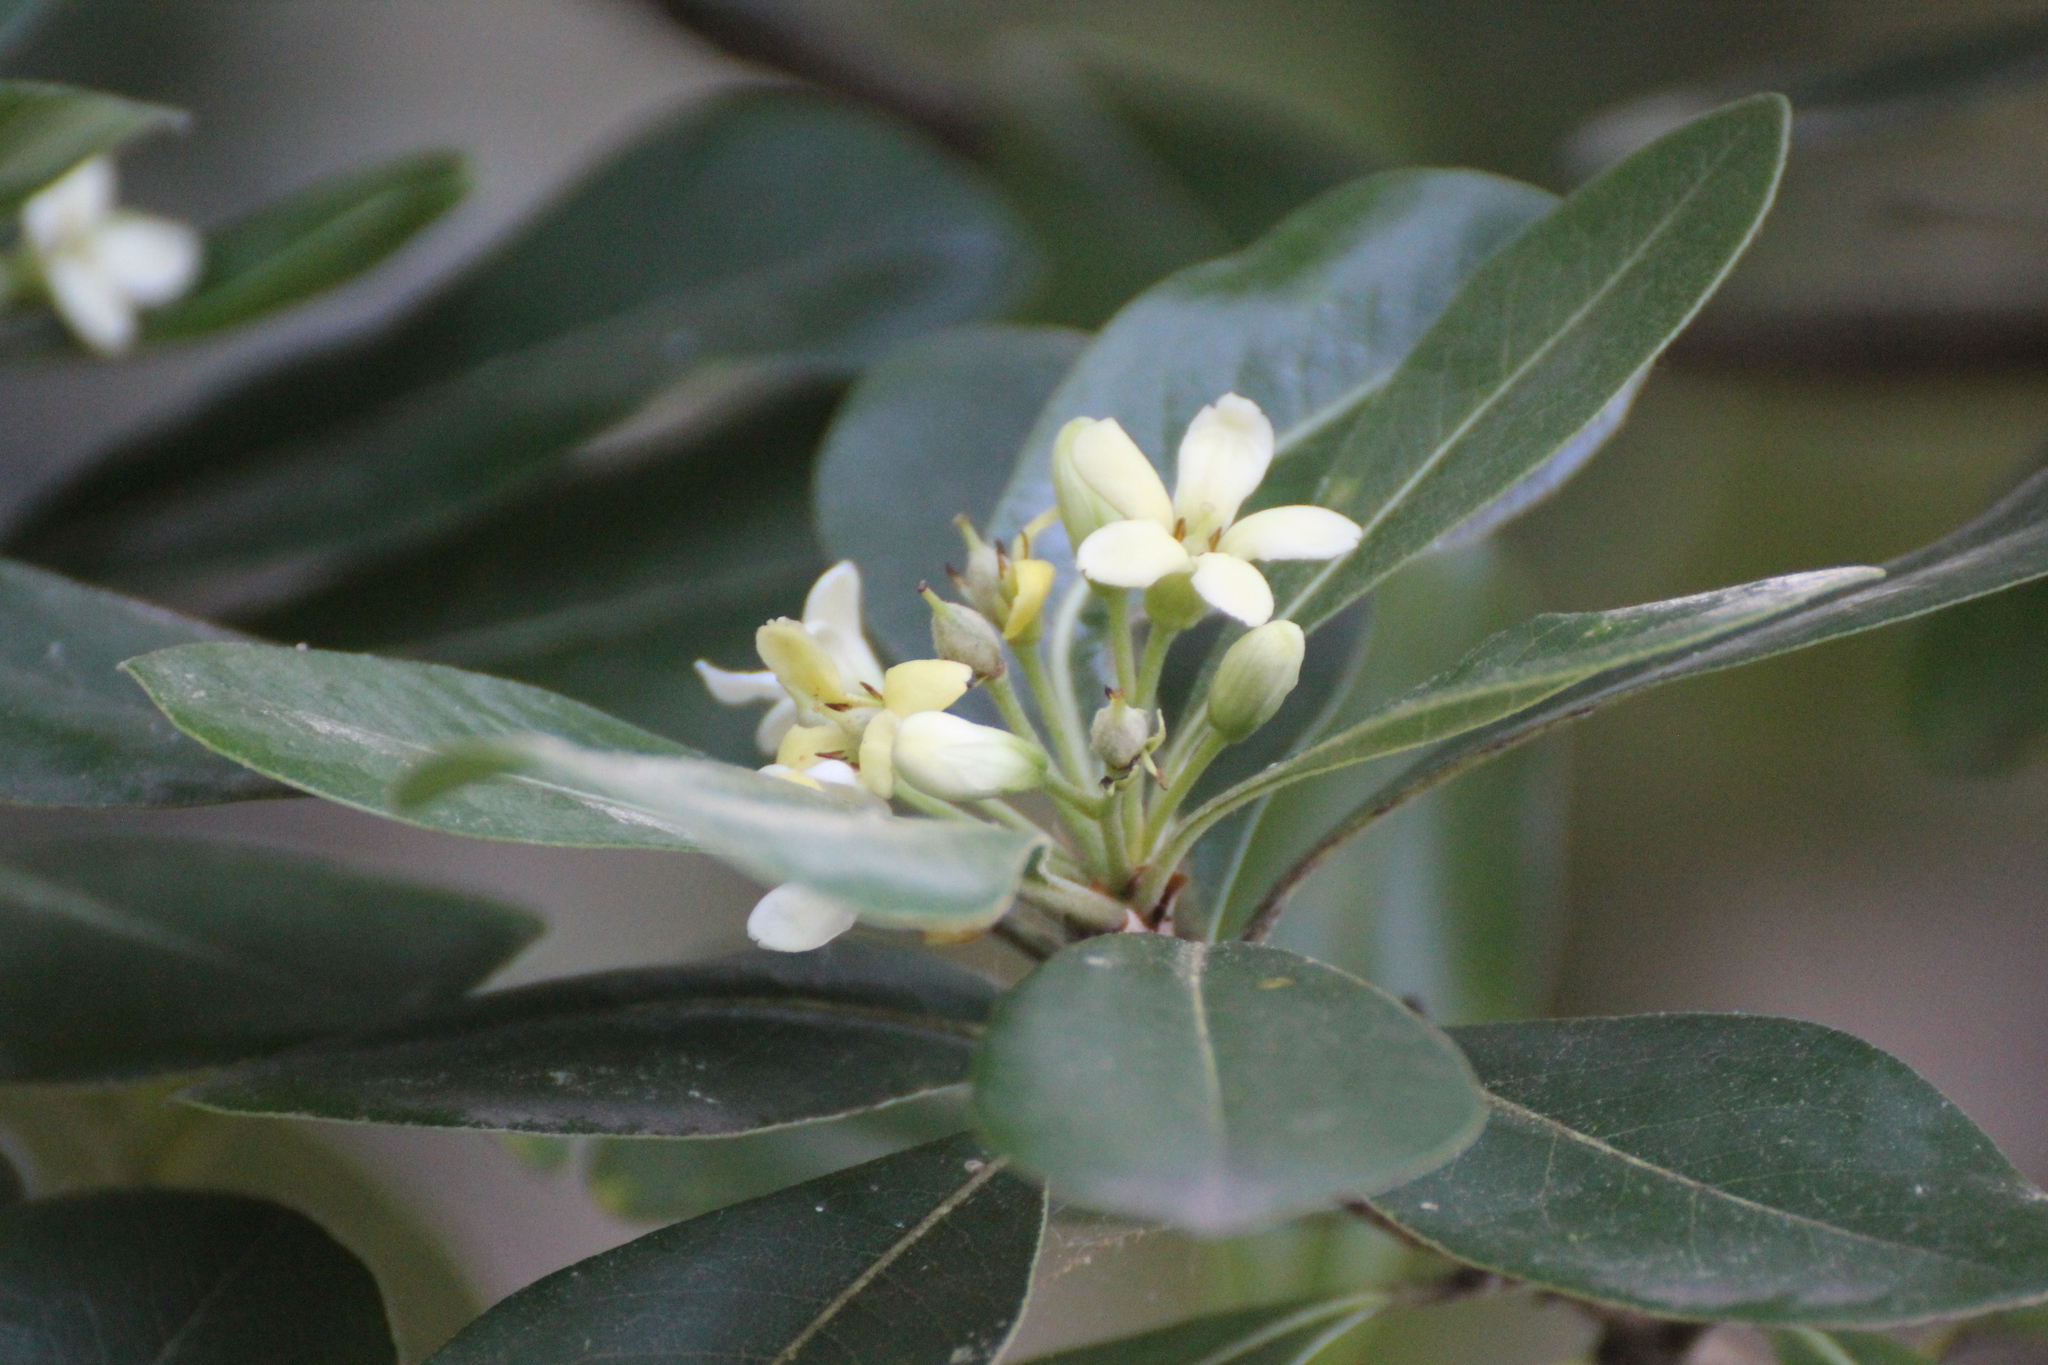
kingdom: Plantae
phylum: Tracheophyta
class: Magnoliopsida
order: Apiales
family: Pittosporaceae
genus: Pittosporum
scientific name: Pittosporum tobira
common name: Japanese cheesewood
